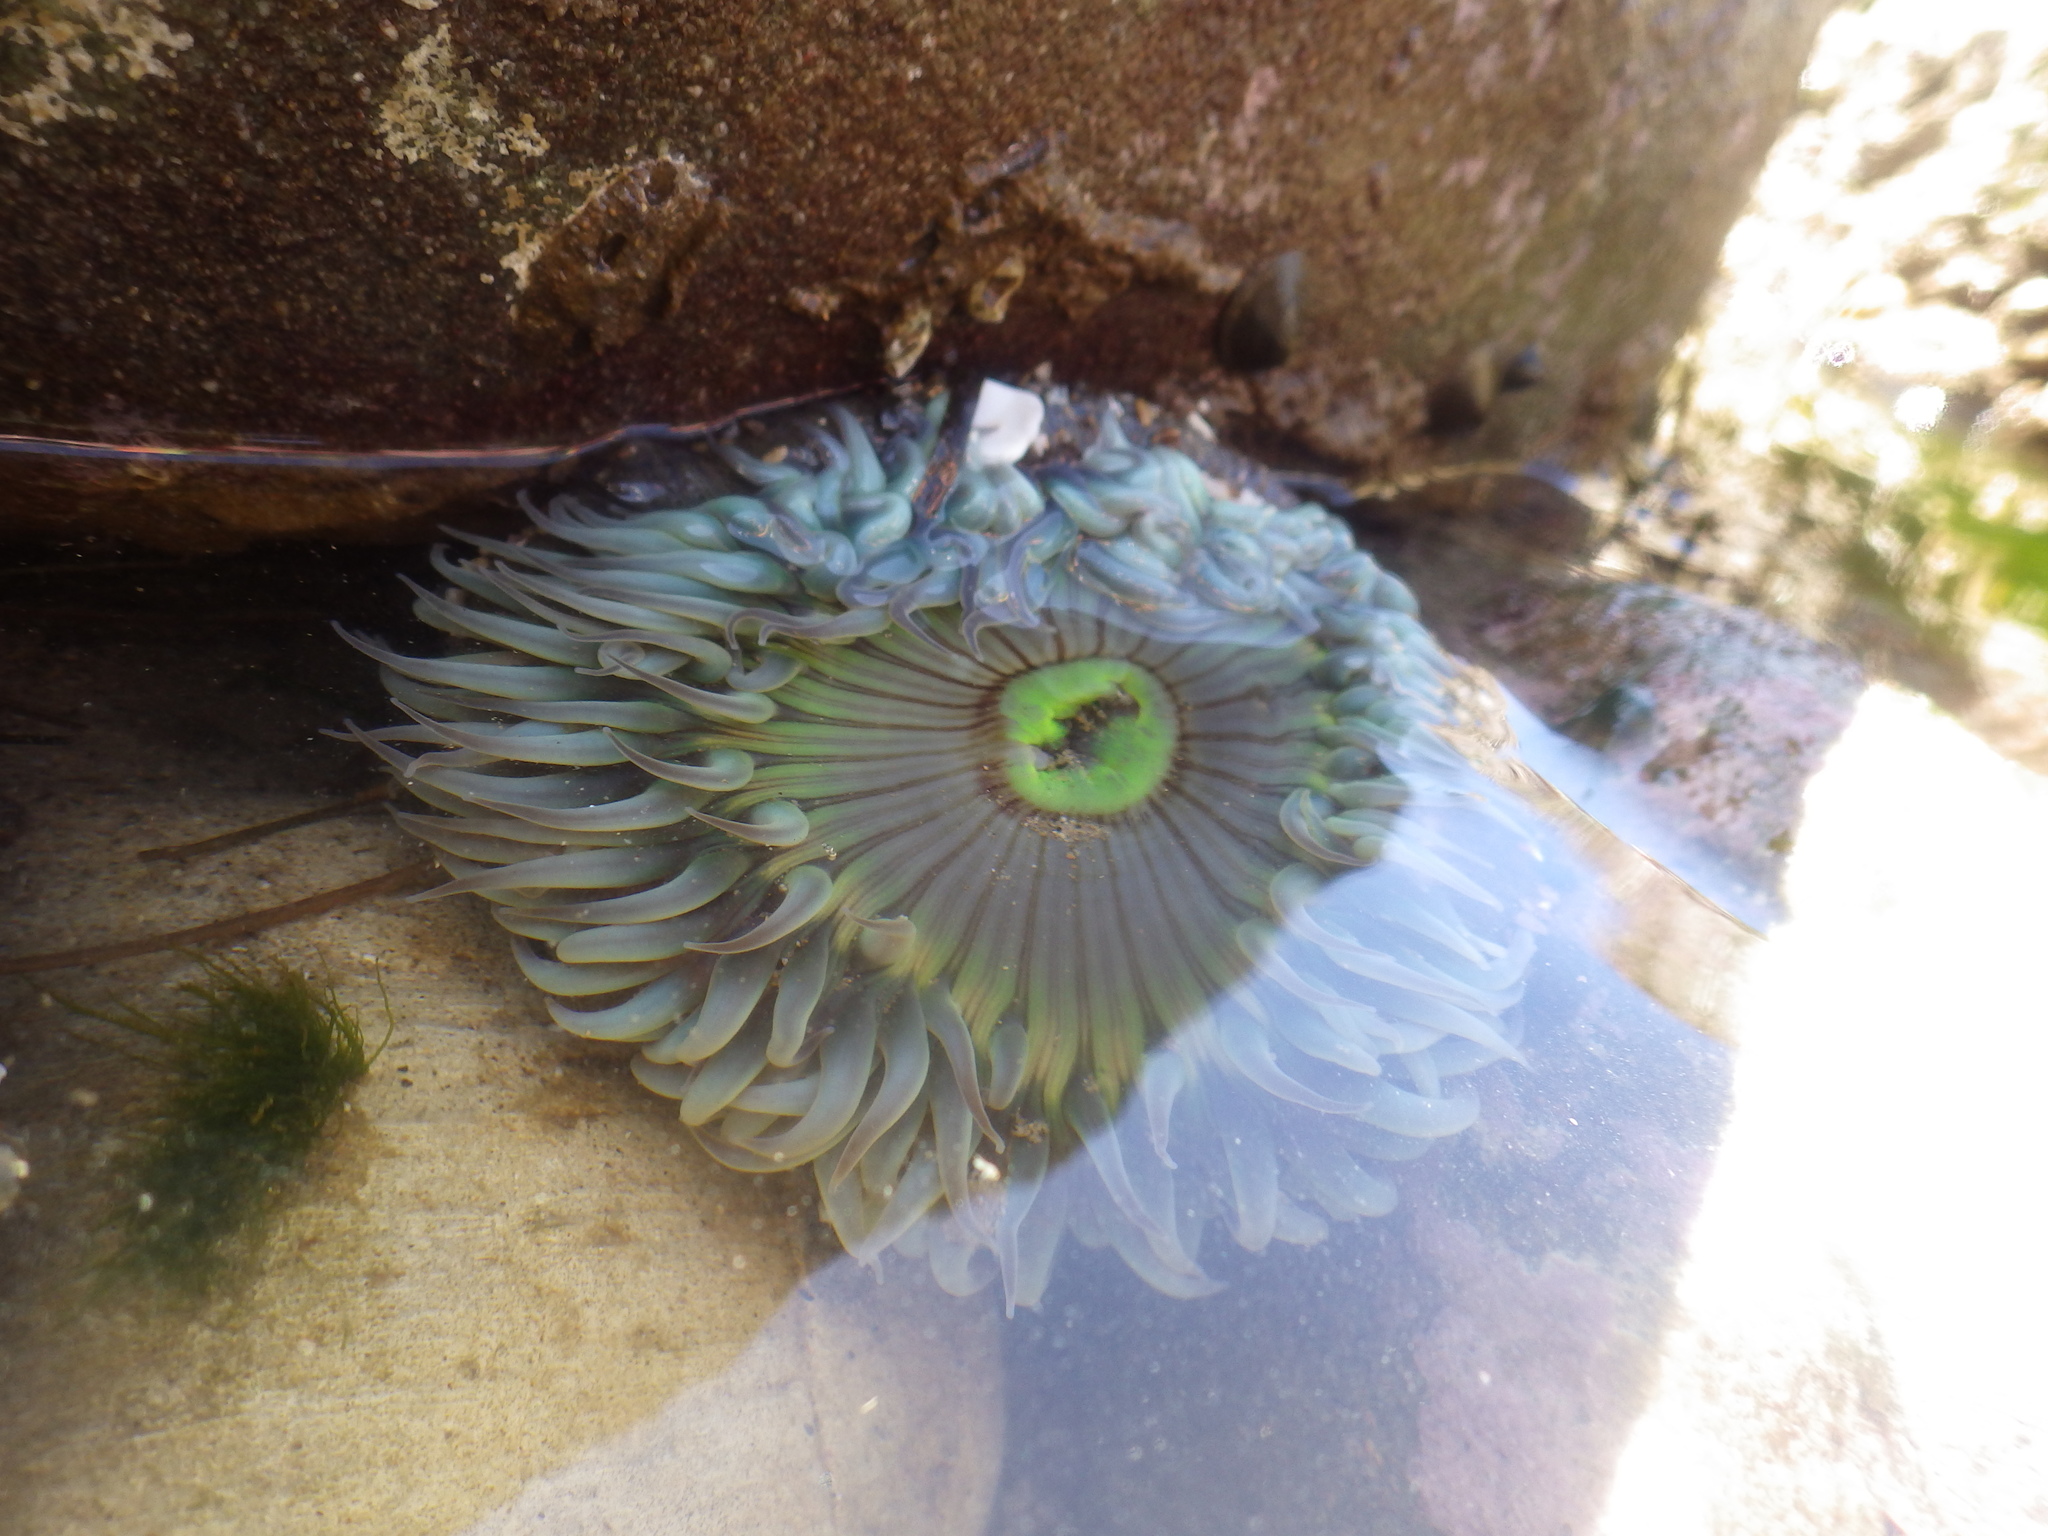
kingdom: Animalia
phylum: Cnidaria
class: Anthozoa
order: Actiniaria
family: Actiniidae
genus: Anthopleura
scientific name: Anthopleura sola
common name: Sun anemone
